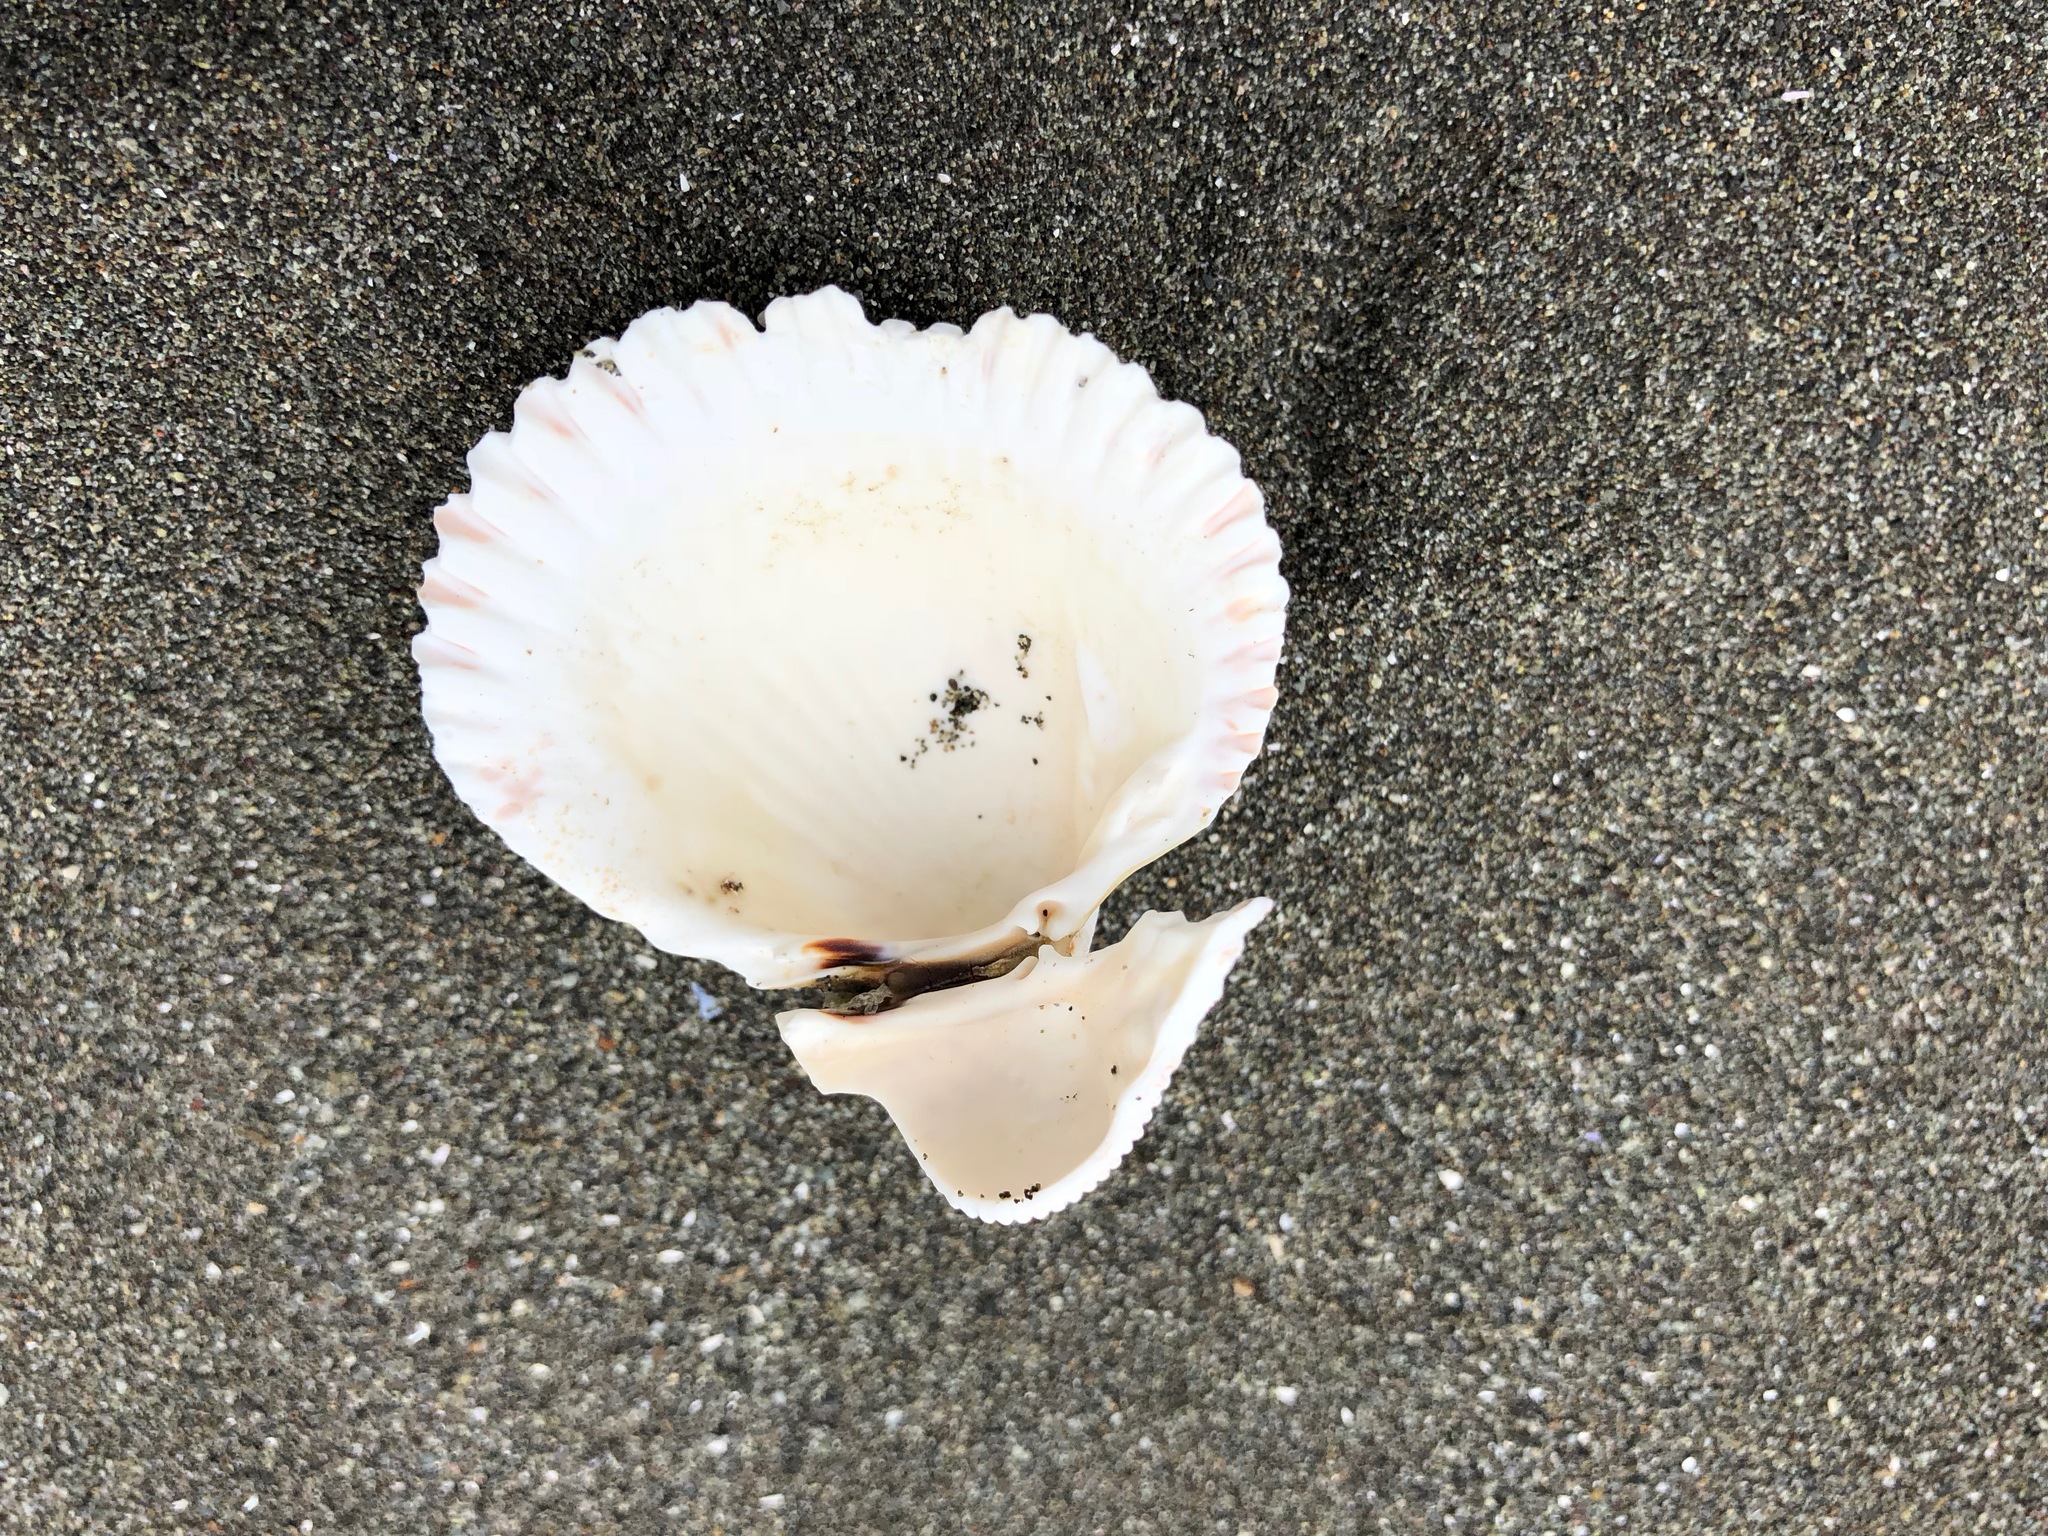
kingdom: Animalia
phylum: Mollusca
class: Bivalvia
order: Cardiida
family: Cardiidae
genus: Ciliatocardium
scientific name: Ciliatocardium ciliatum
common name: Hairy cockle
